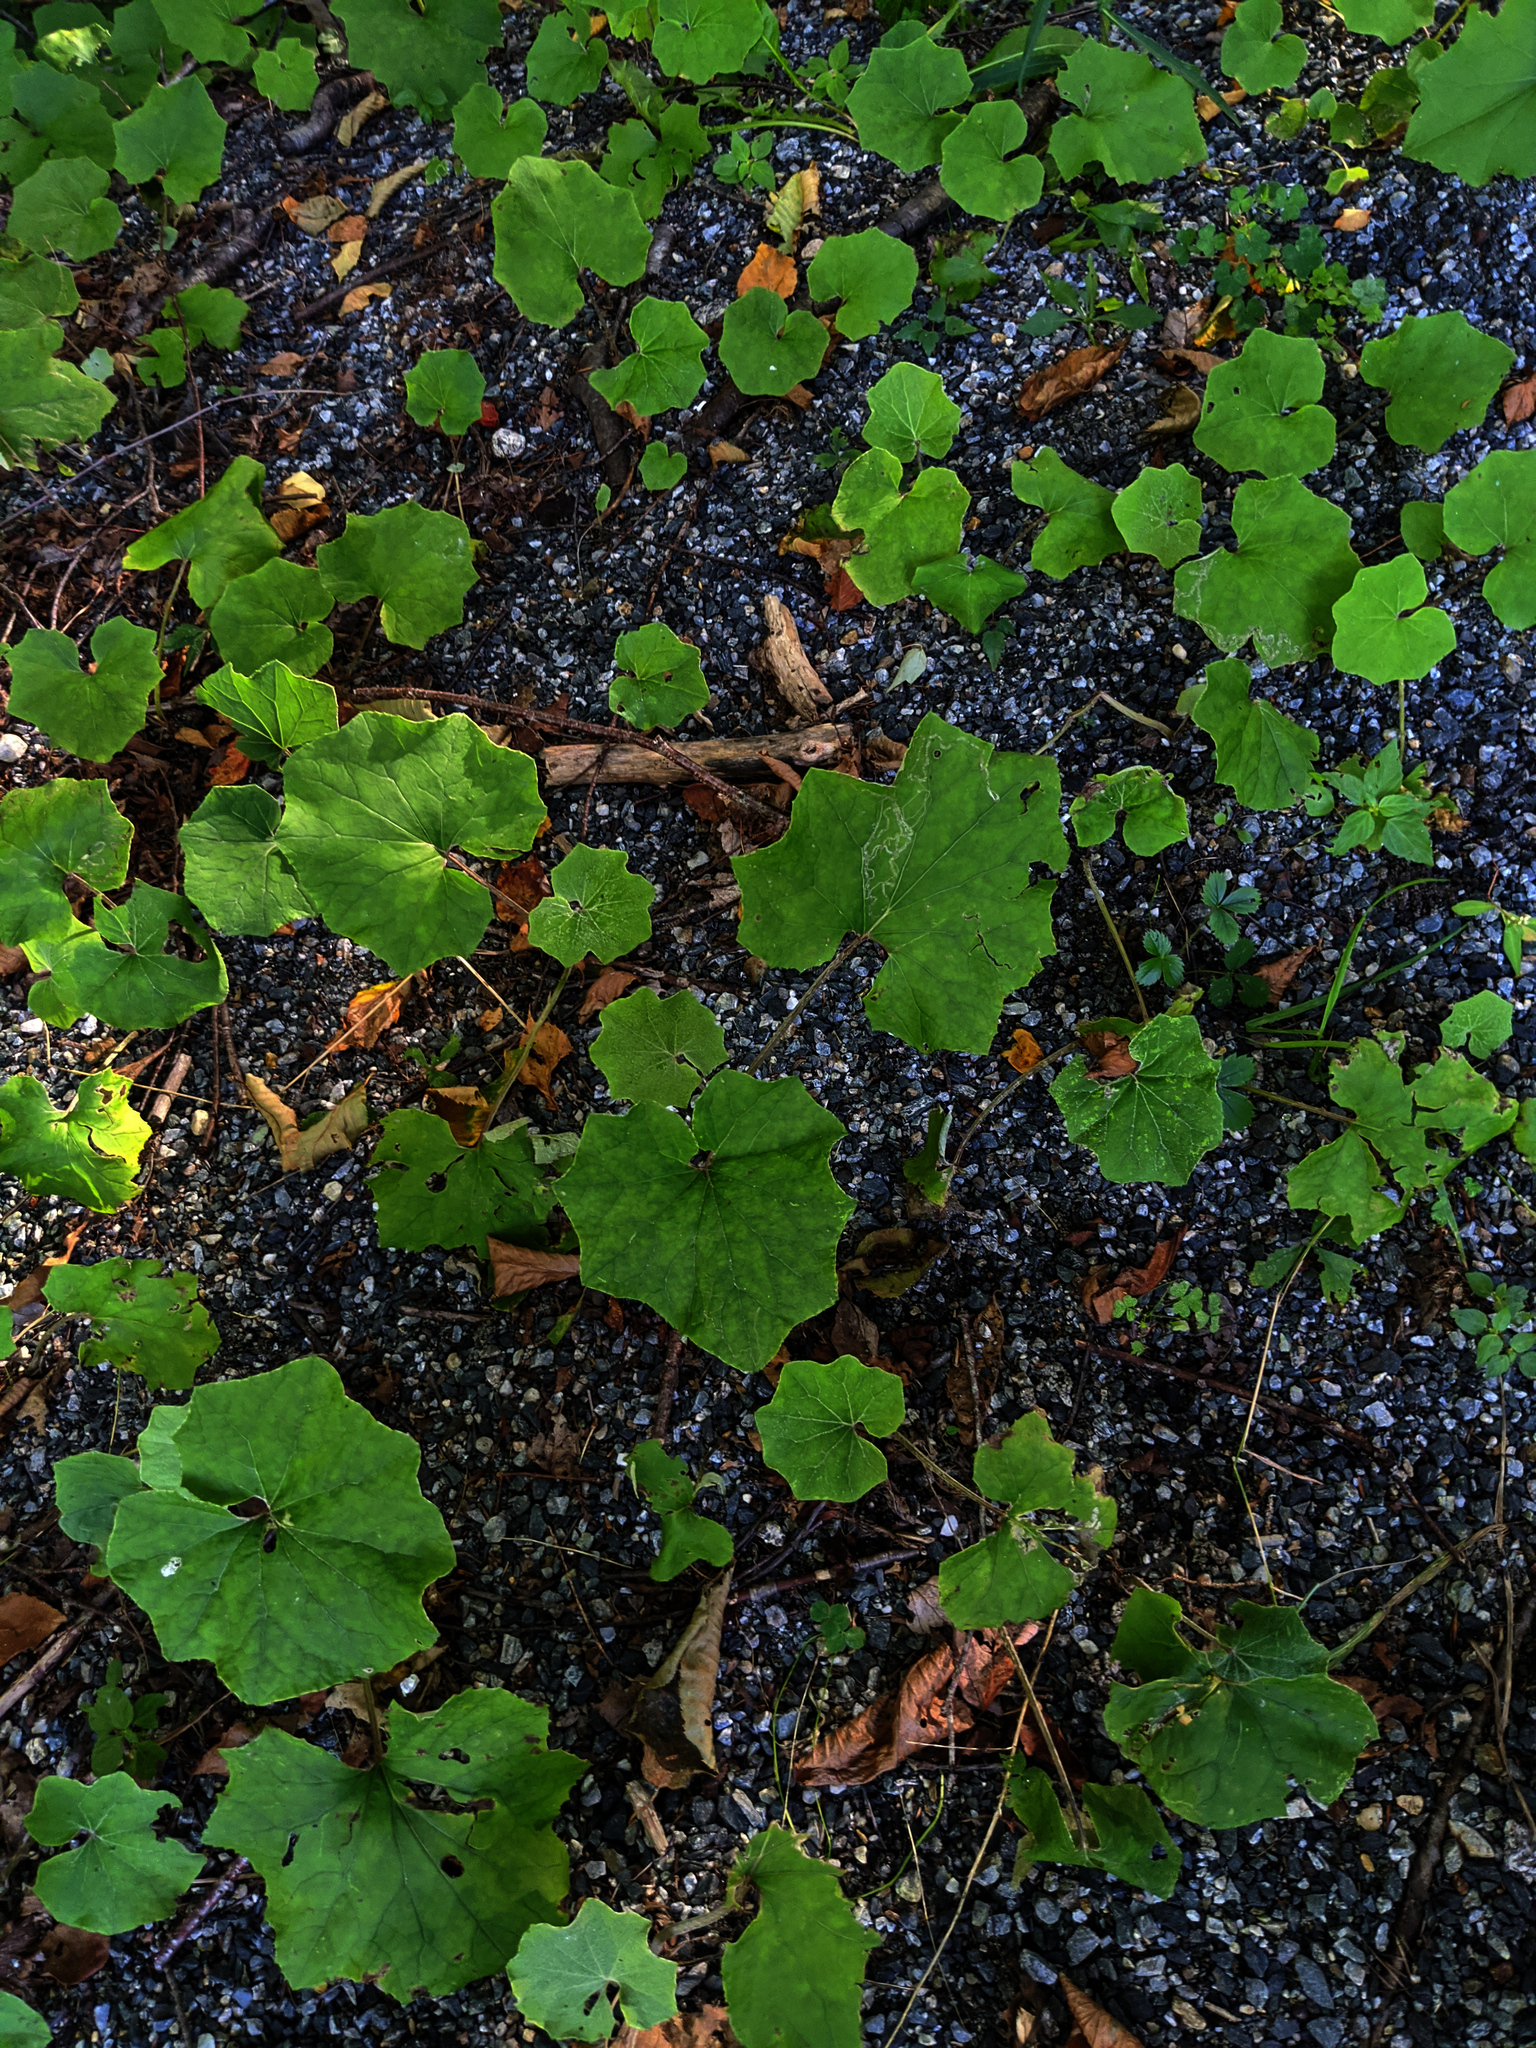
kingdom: Plantae
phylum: Tracheophyta
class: Magnoliopsida
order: Asterales
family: Asteraceae
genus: Tussilago
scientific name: Tussilago farfara
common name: Coltsfoot
